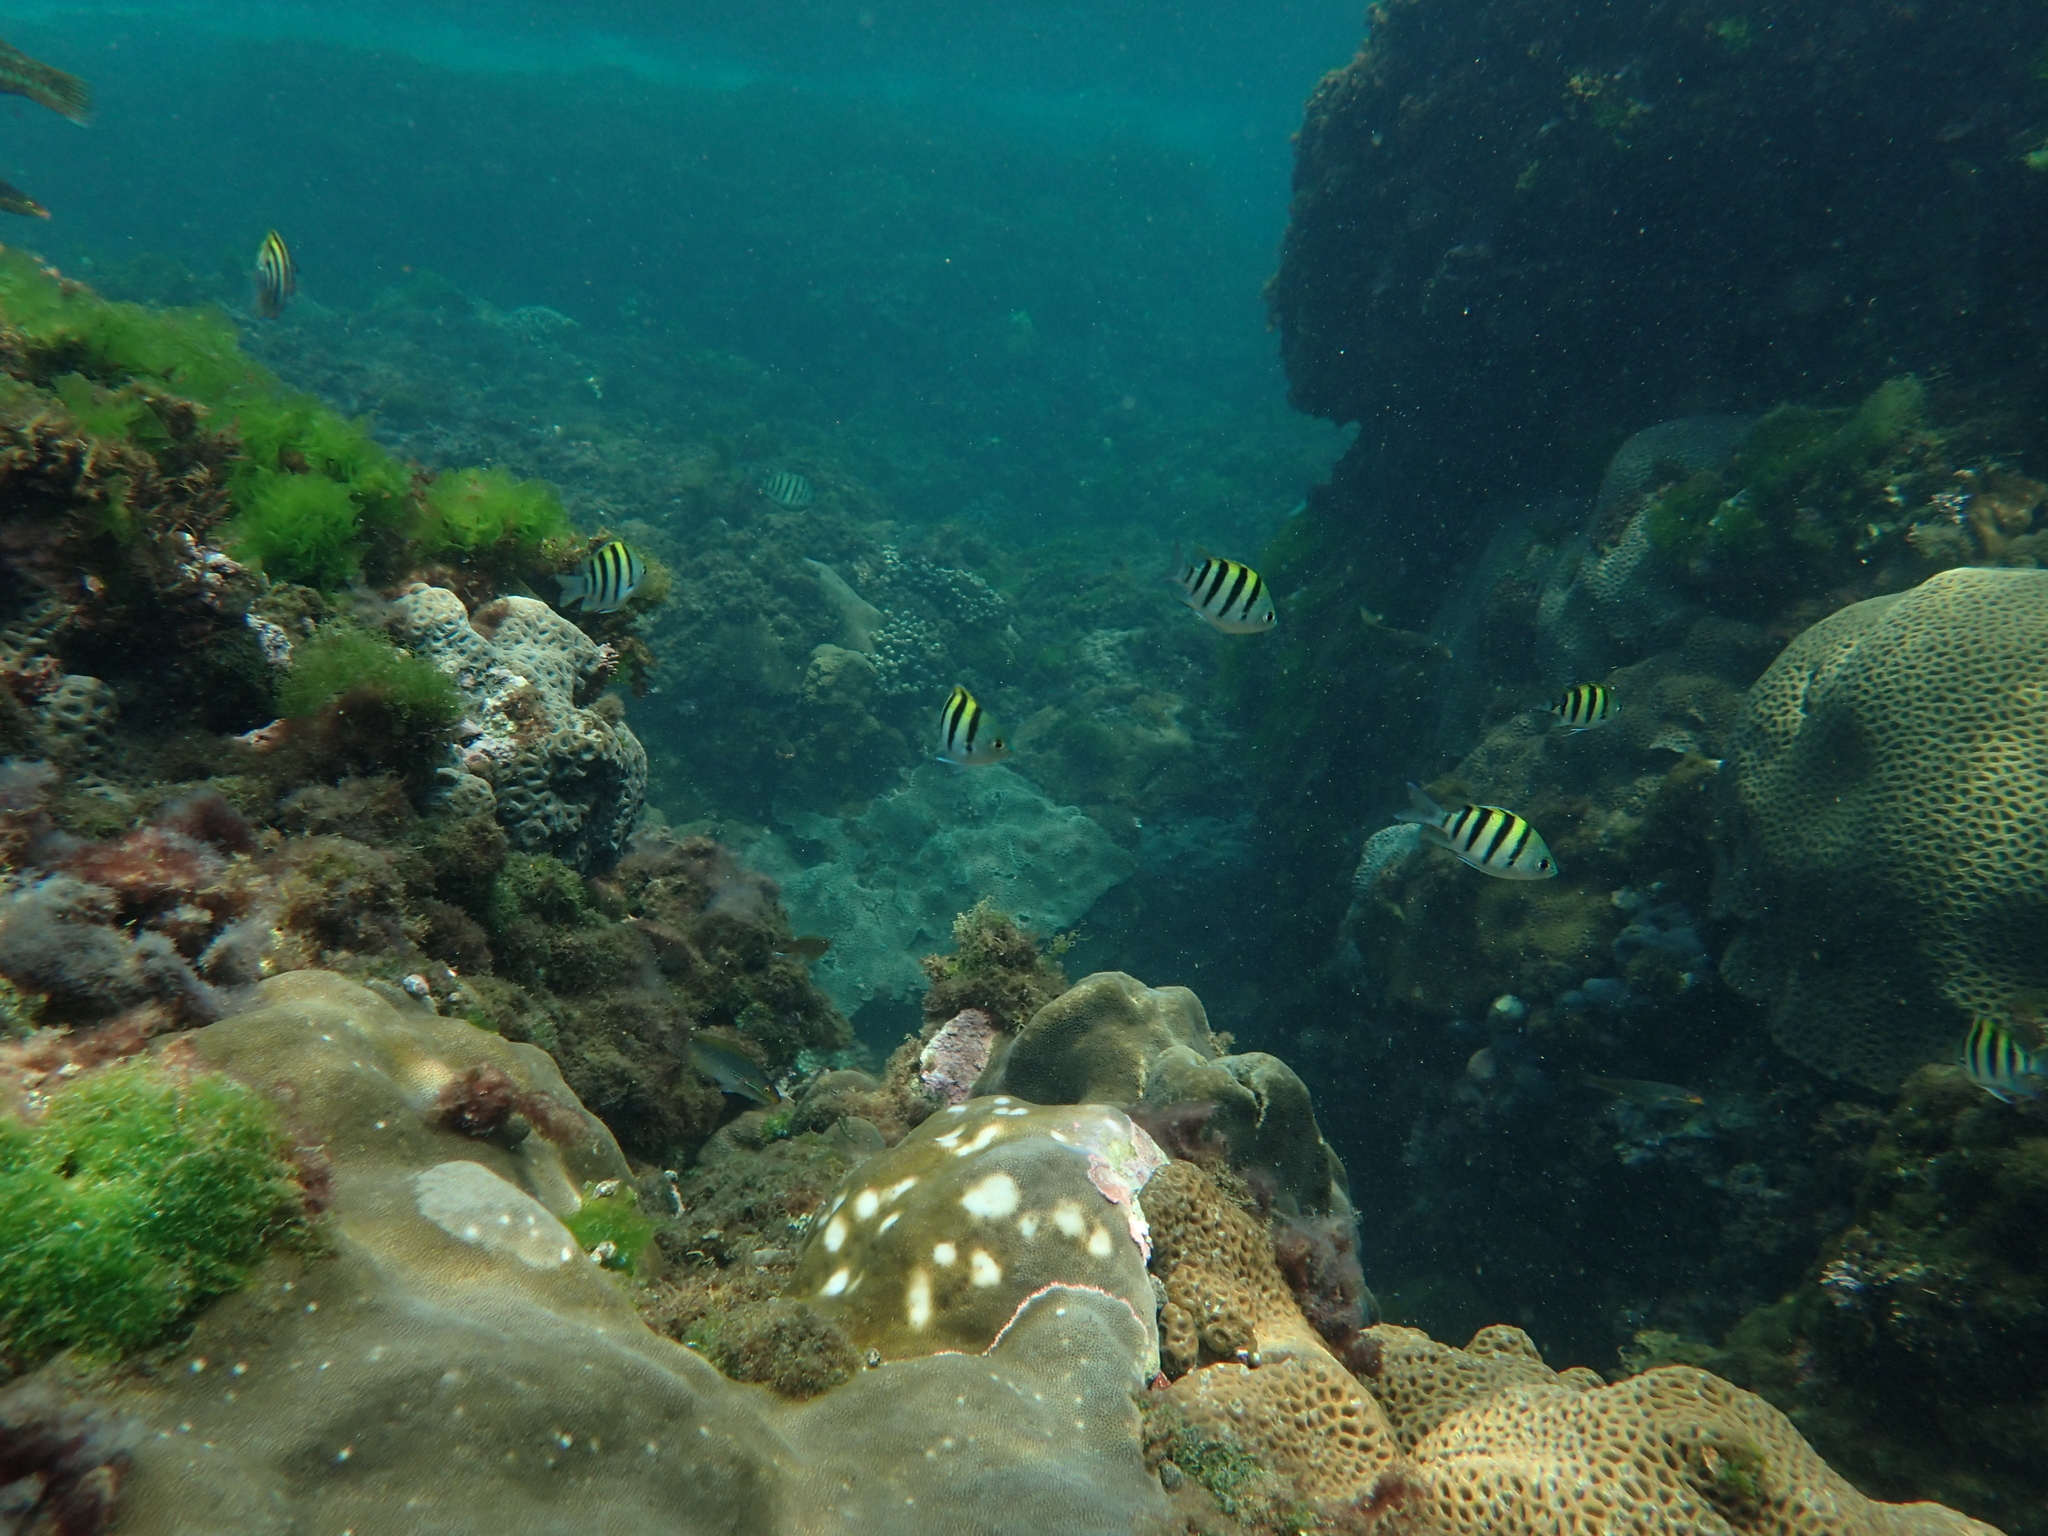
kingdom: Animalia
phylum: Chordata
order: Perciformes
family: Pomacentridae
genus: Abudefduf
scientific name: Abudefduf vaigiensis
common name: Indo-pacific sergeant
